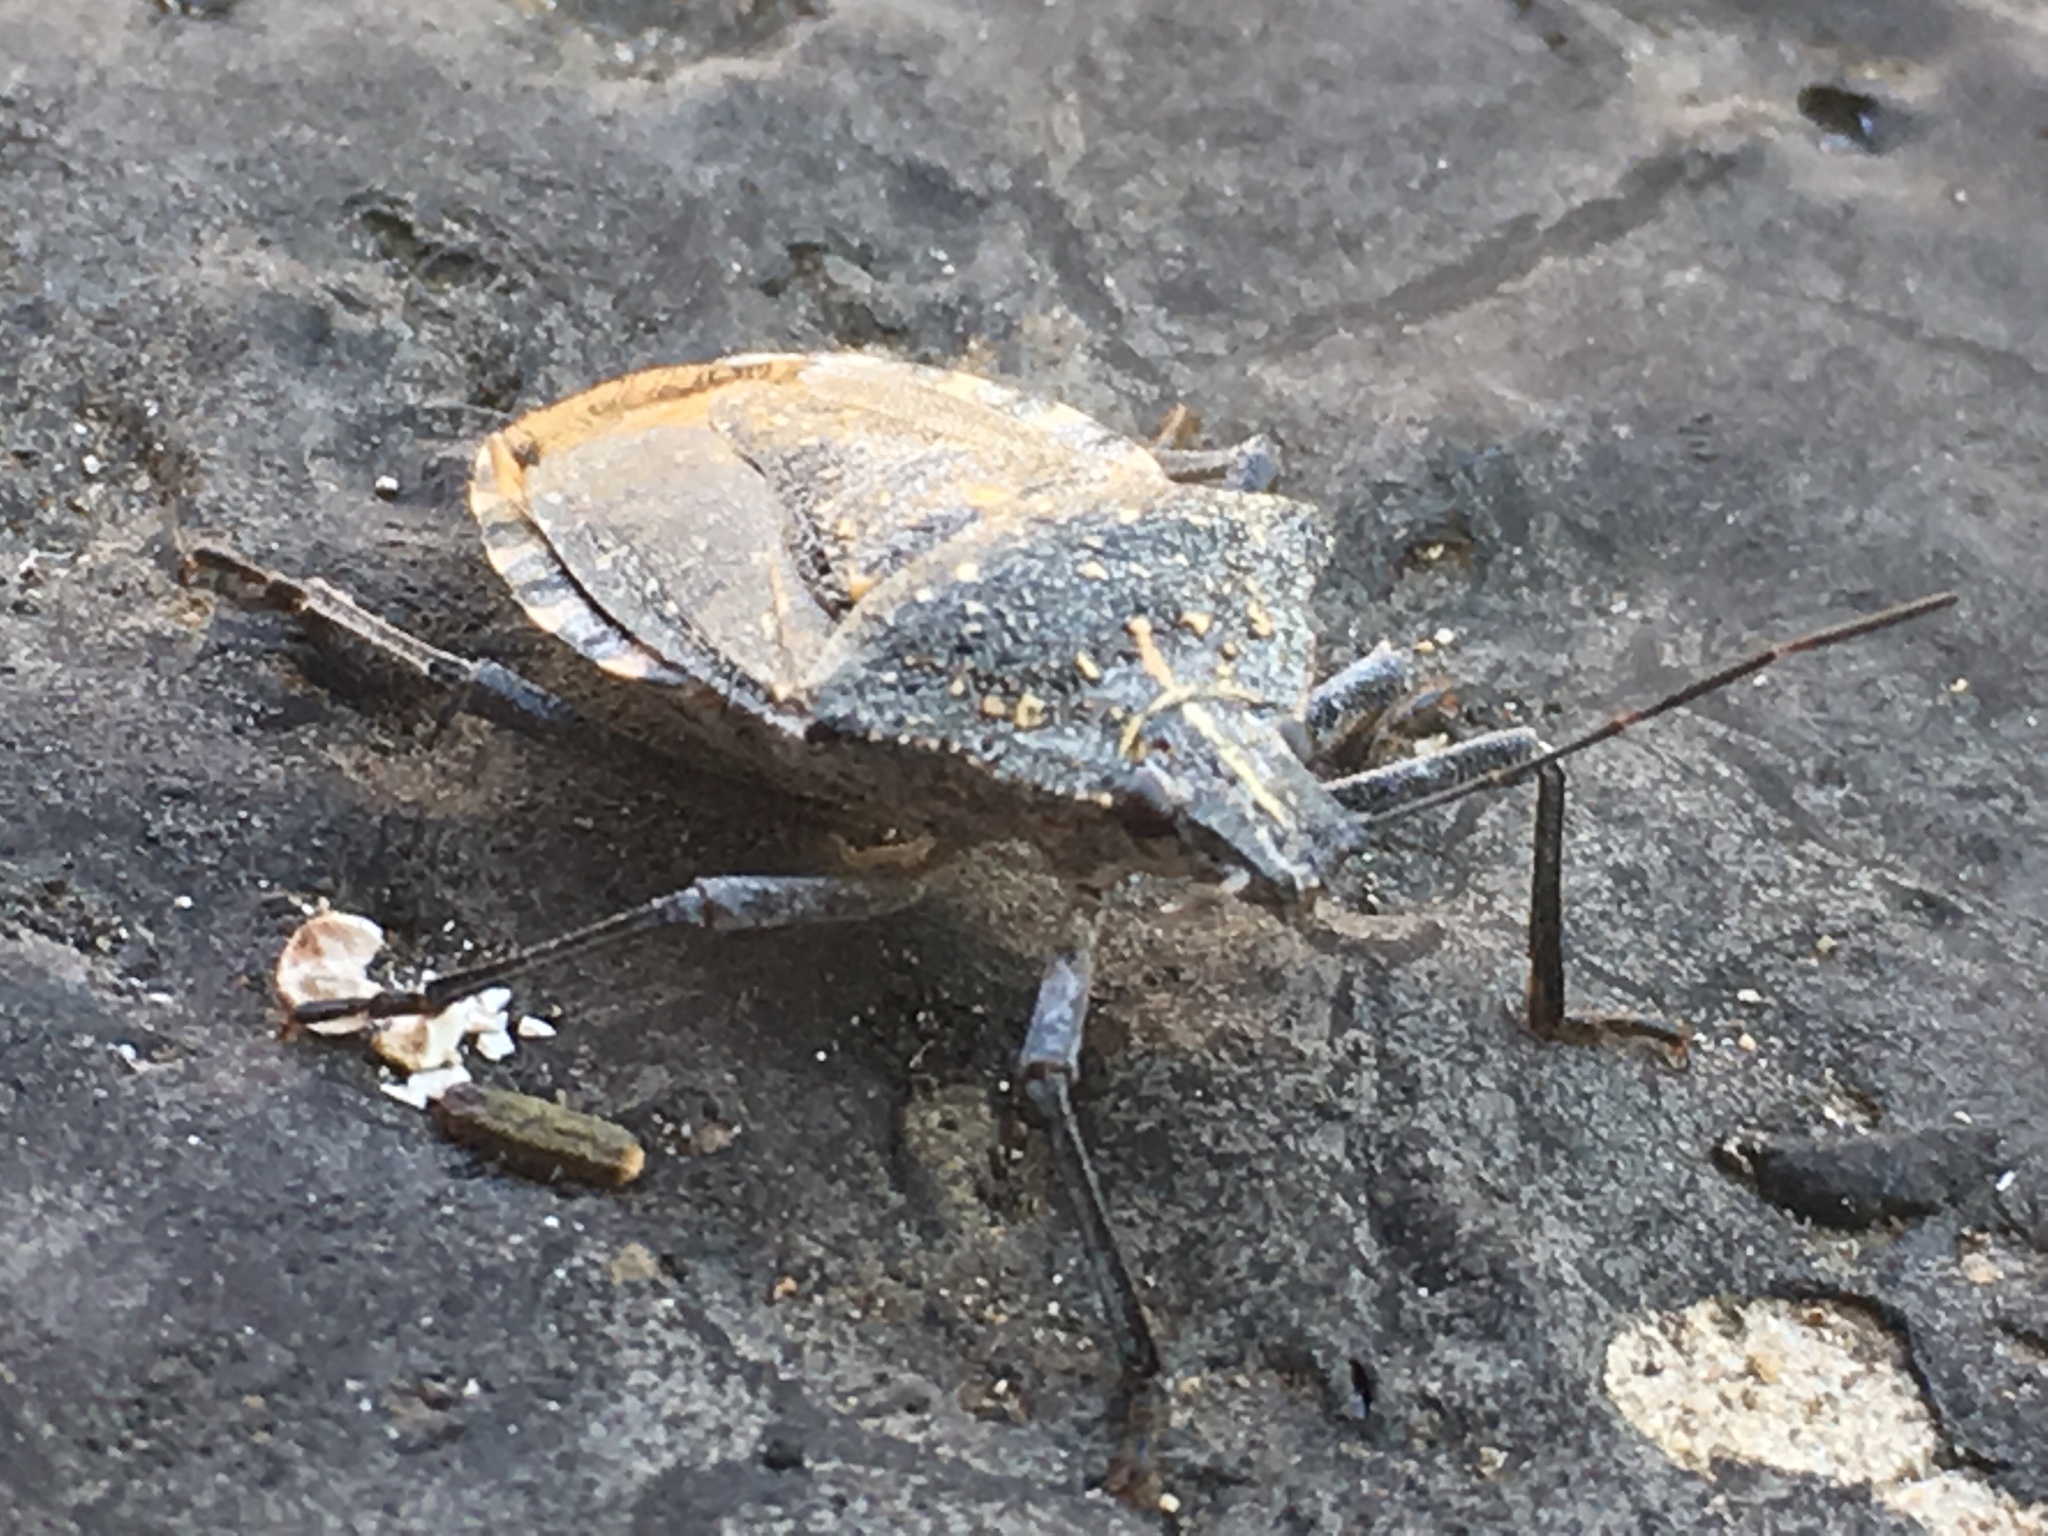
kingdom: Animalia
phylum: Arthropoda
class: Insecta
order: Hemiptera
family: Pentatomidae
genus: Apodiphus
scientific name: Apodiphus amygdali
